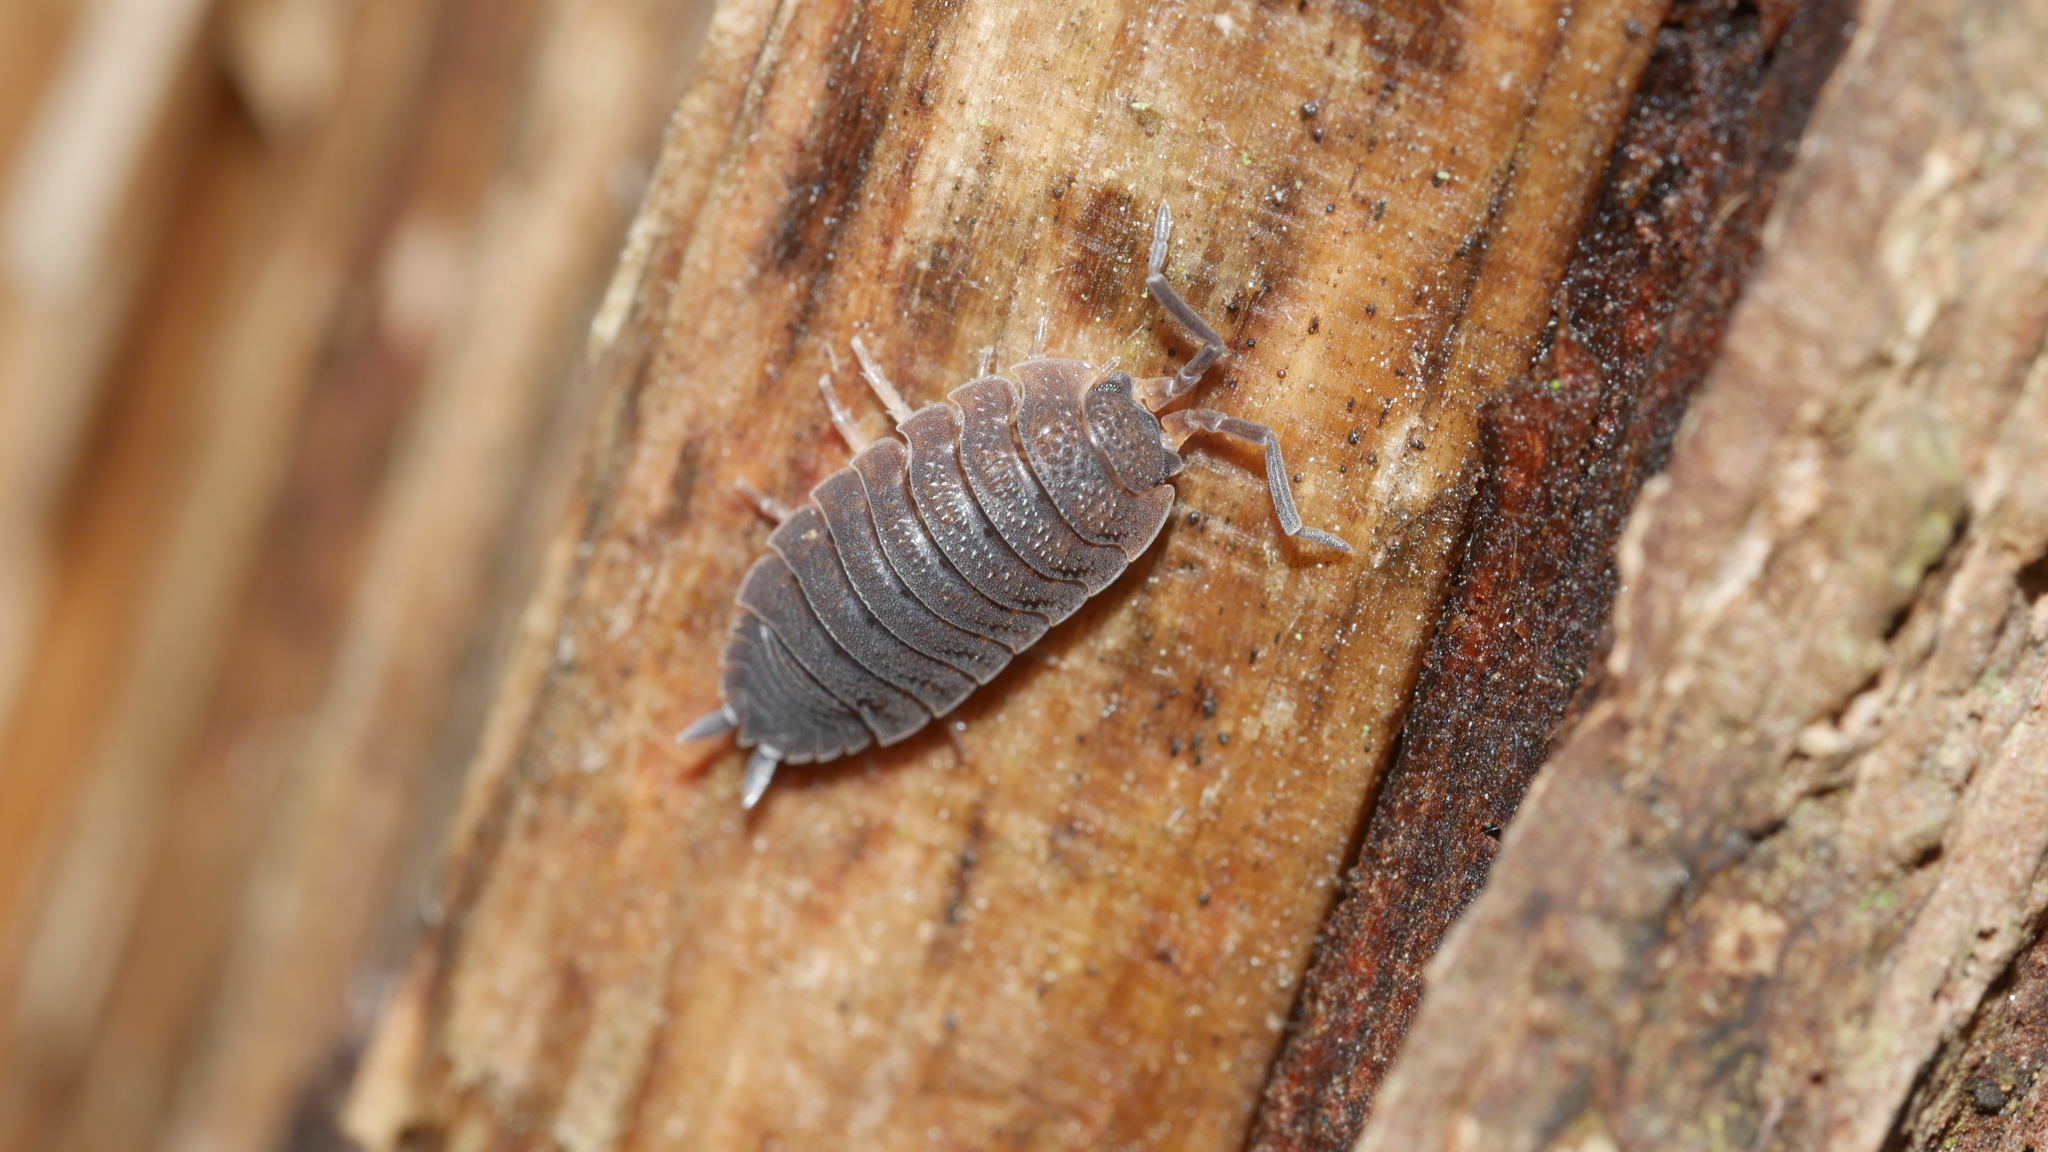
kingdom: Animalia
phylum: Arthropoda
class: Malacostraca
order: Isopoda
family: Porcellionidae
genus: Porcellio
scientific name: Porcellio scaber
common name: Common rough woodlouse
